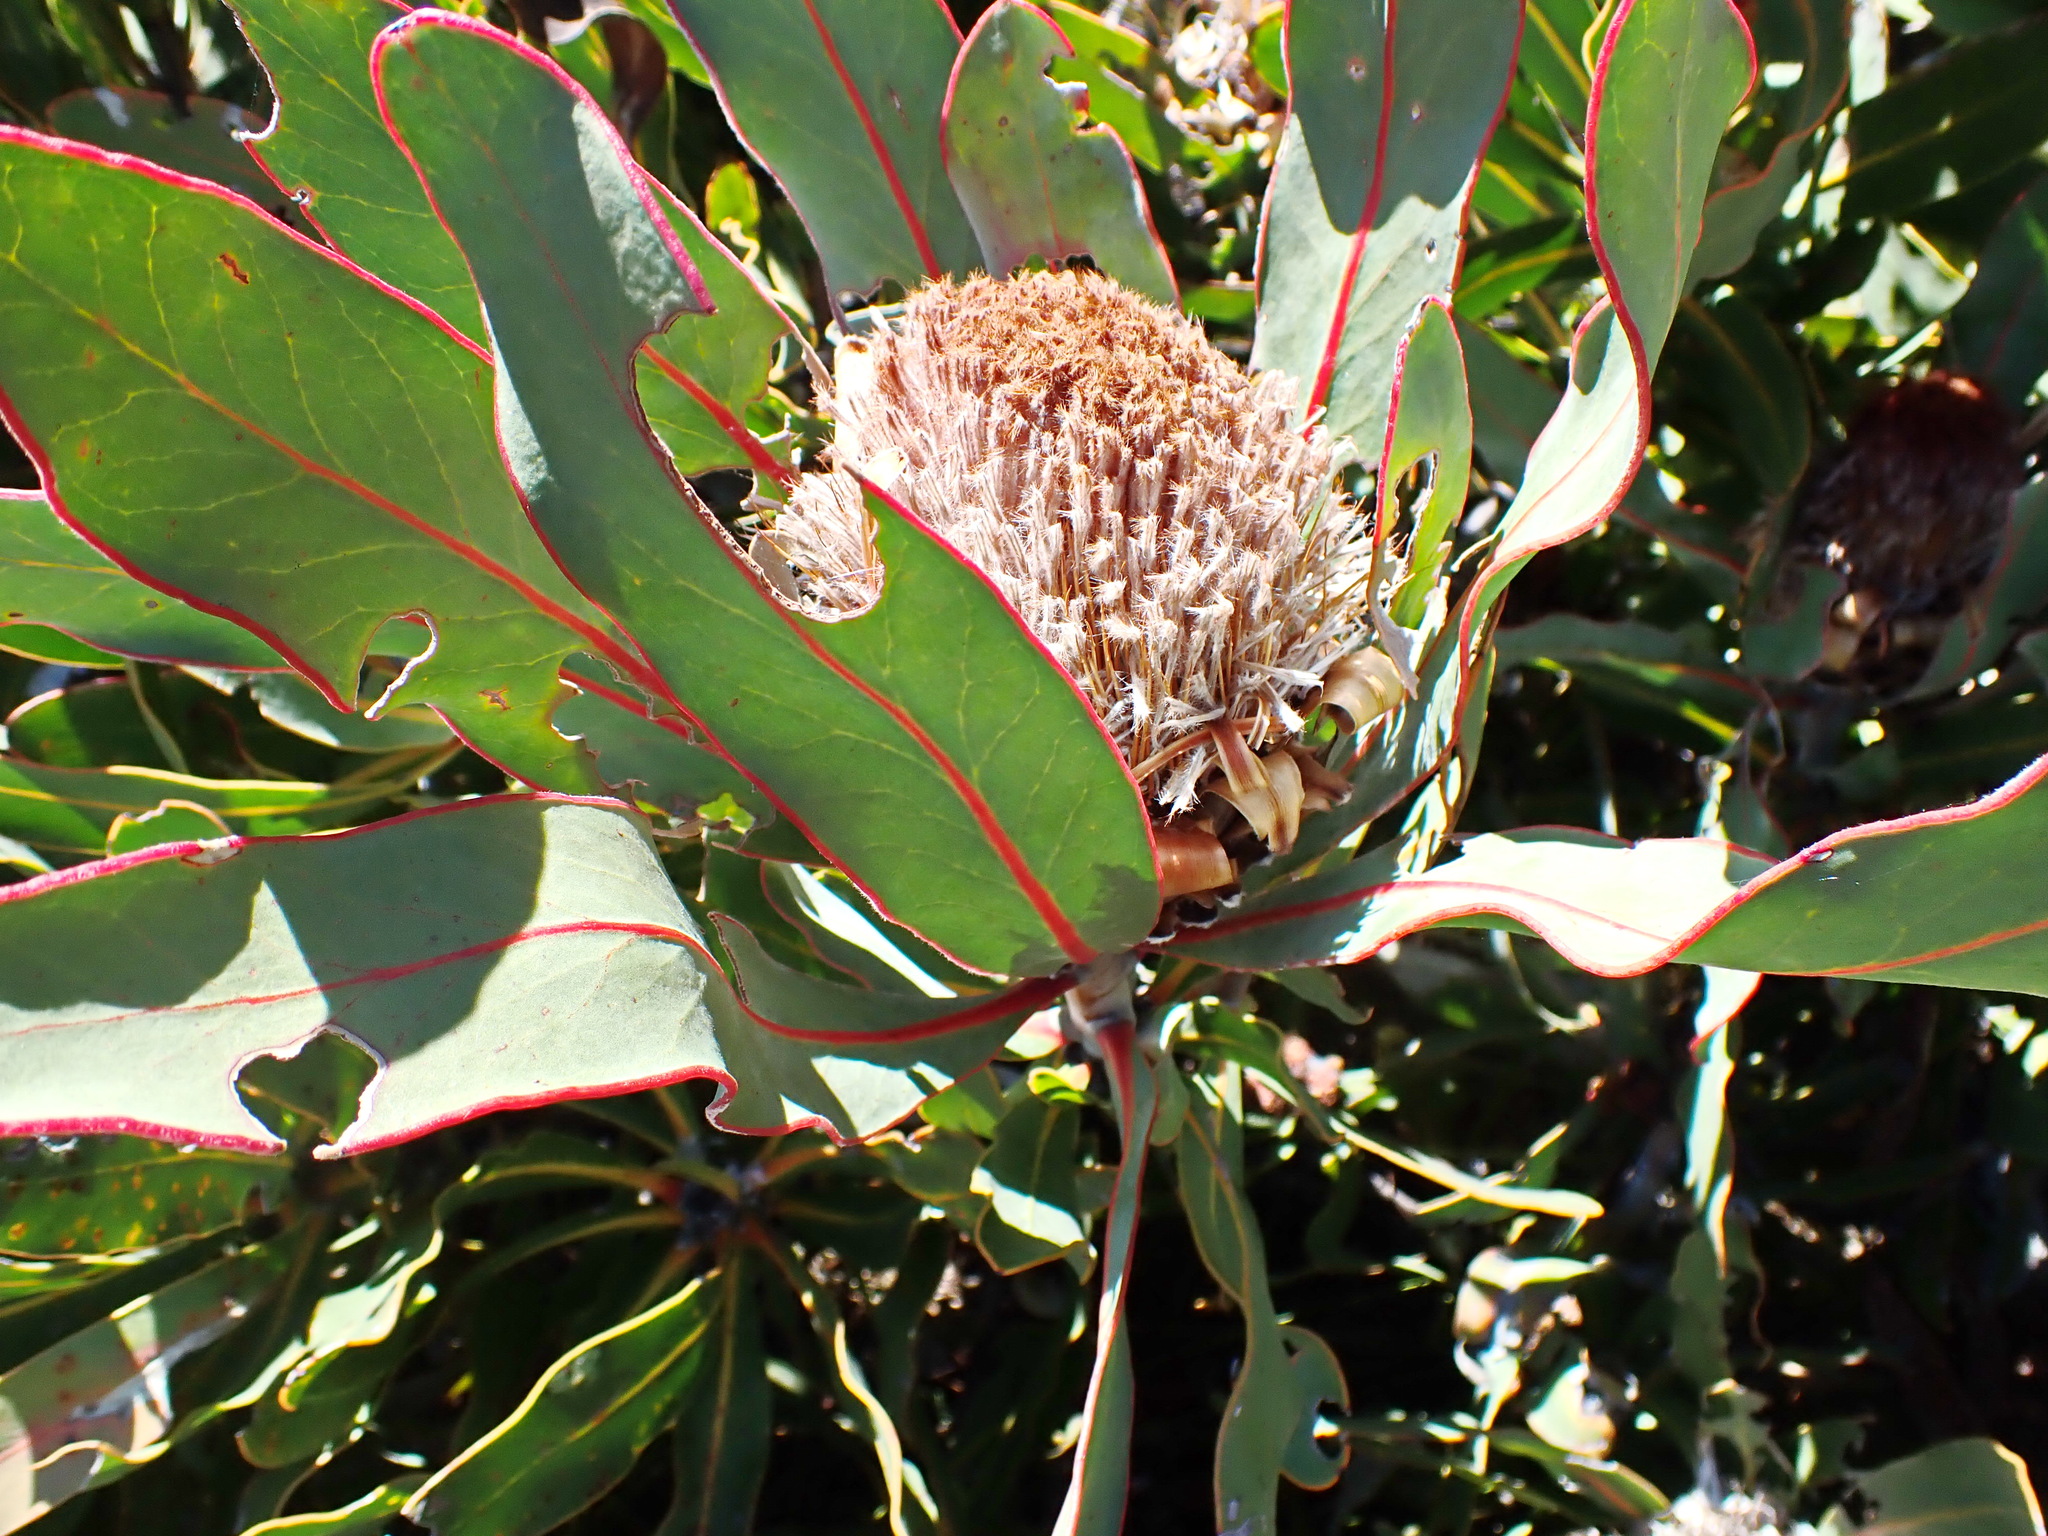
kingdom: Plantae
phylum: Tracheophyta
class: Magnoliopsida
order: Proteales
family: Proteaceae
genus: Protea
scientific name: Protea lorifolia
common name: Strap-leaved protea
